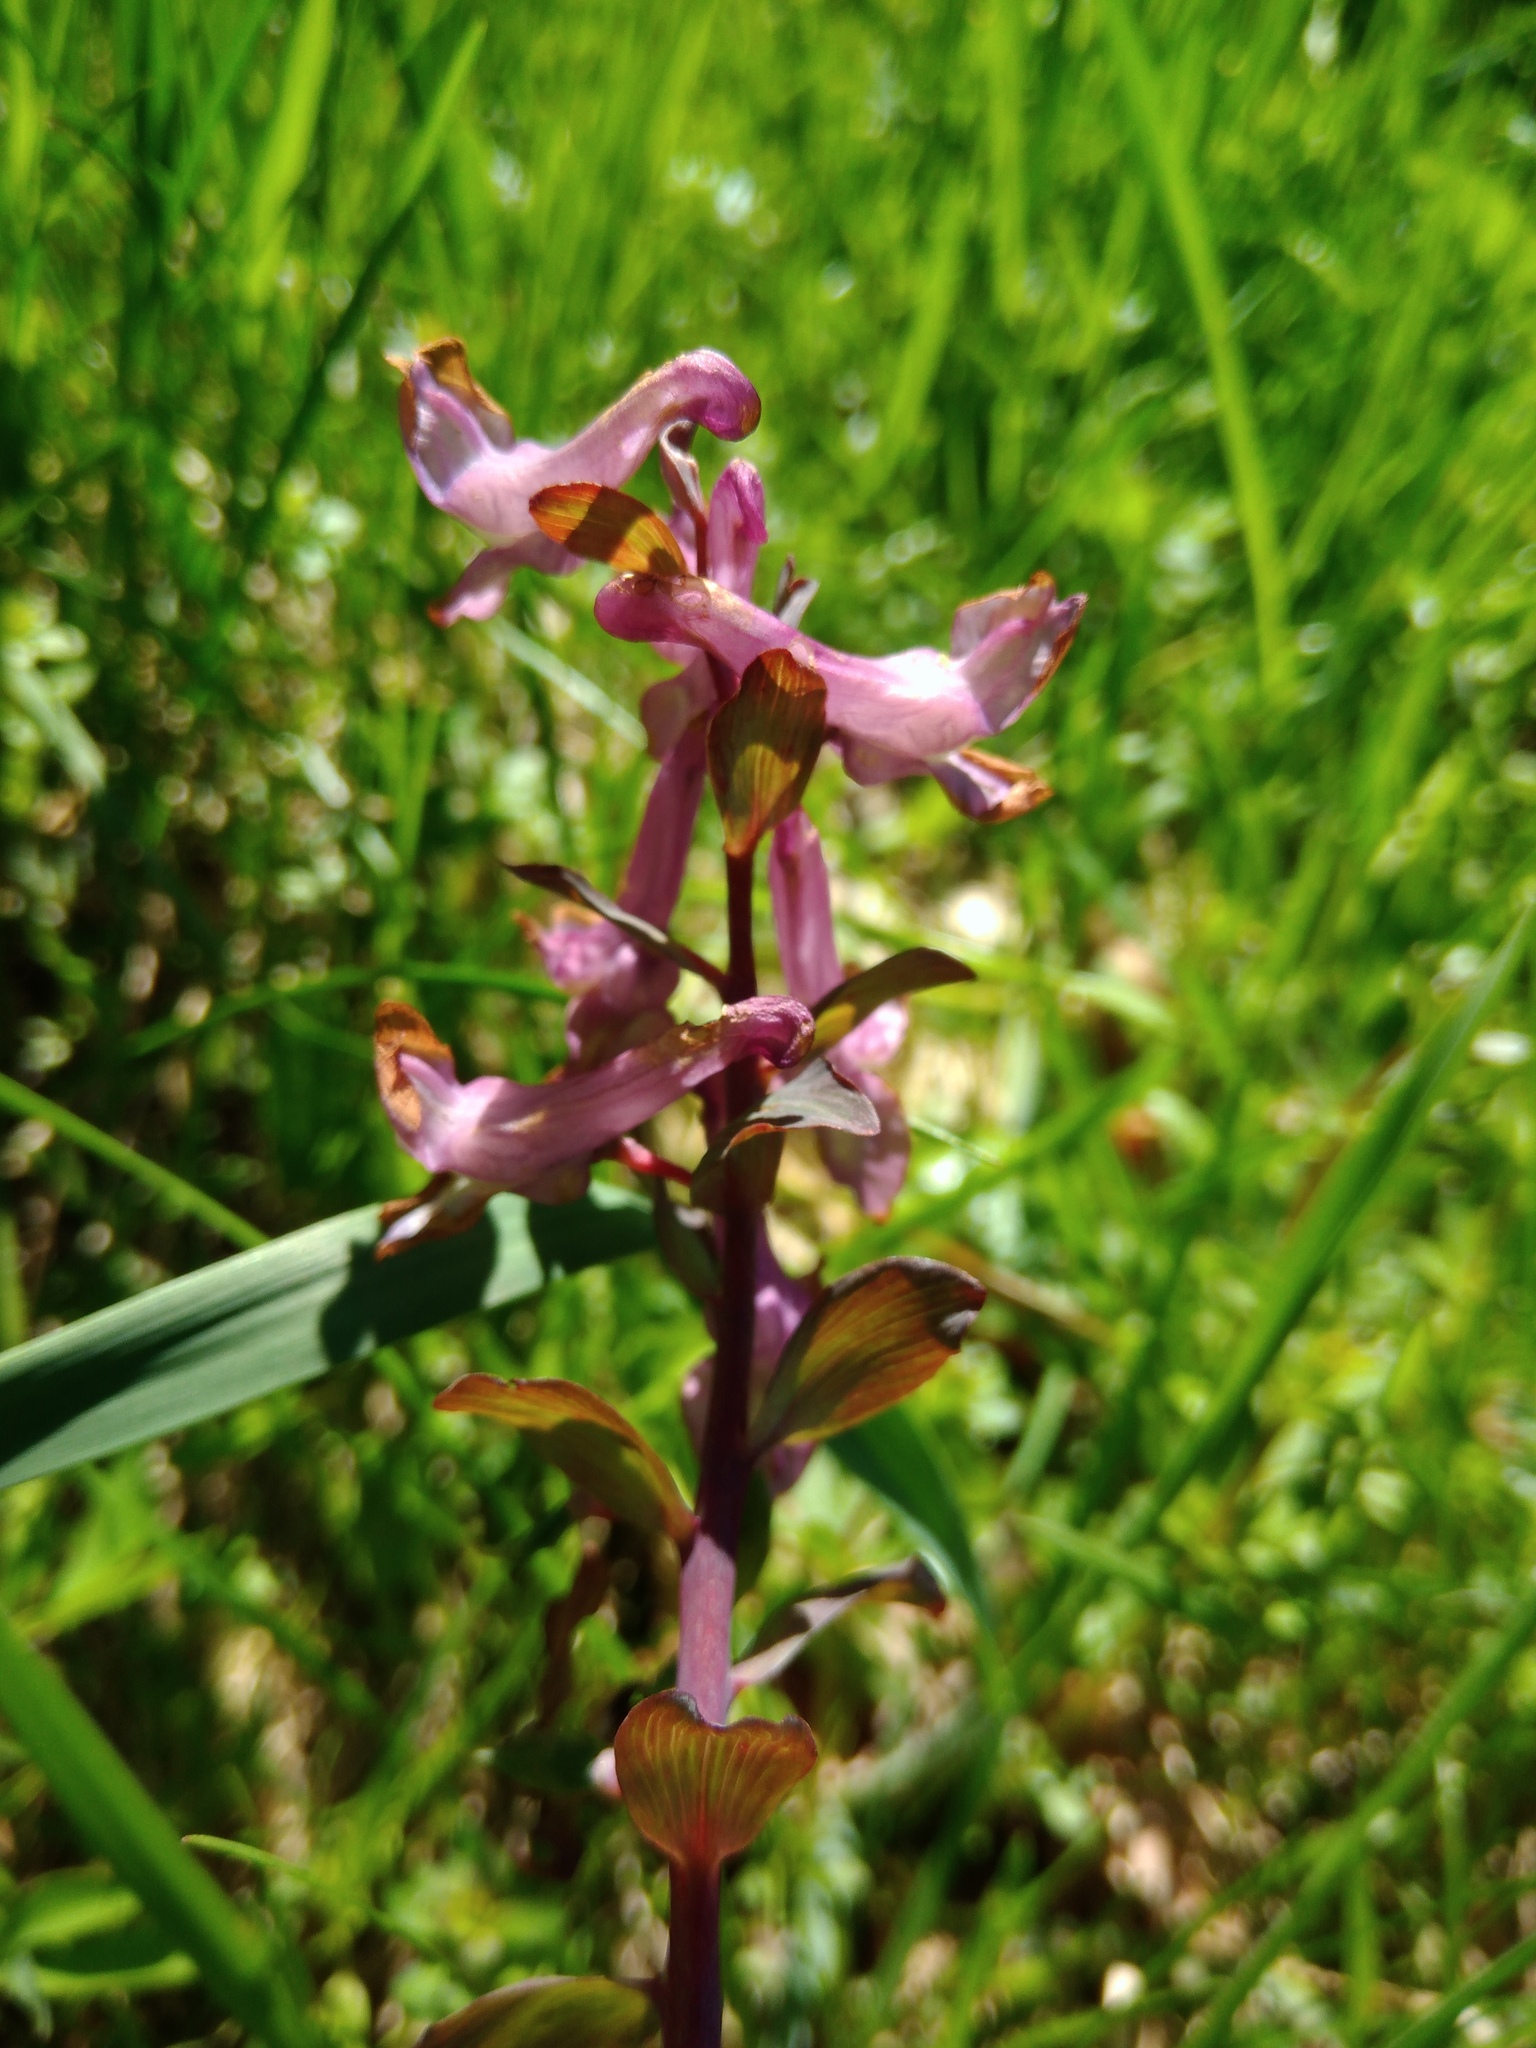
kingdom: Plantae
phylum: Tracheophyta
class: Magnoliopsida
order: Ranunculales
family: Papaveraceae
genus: Corydalis
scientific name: Corydalis cava
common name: Hollowroot
